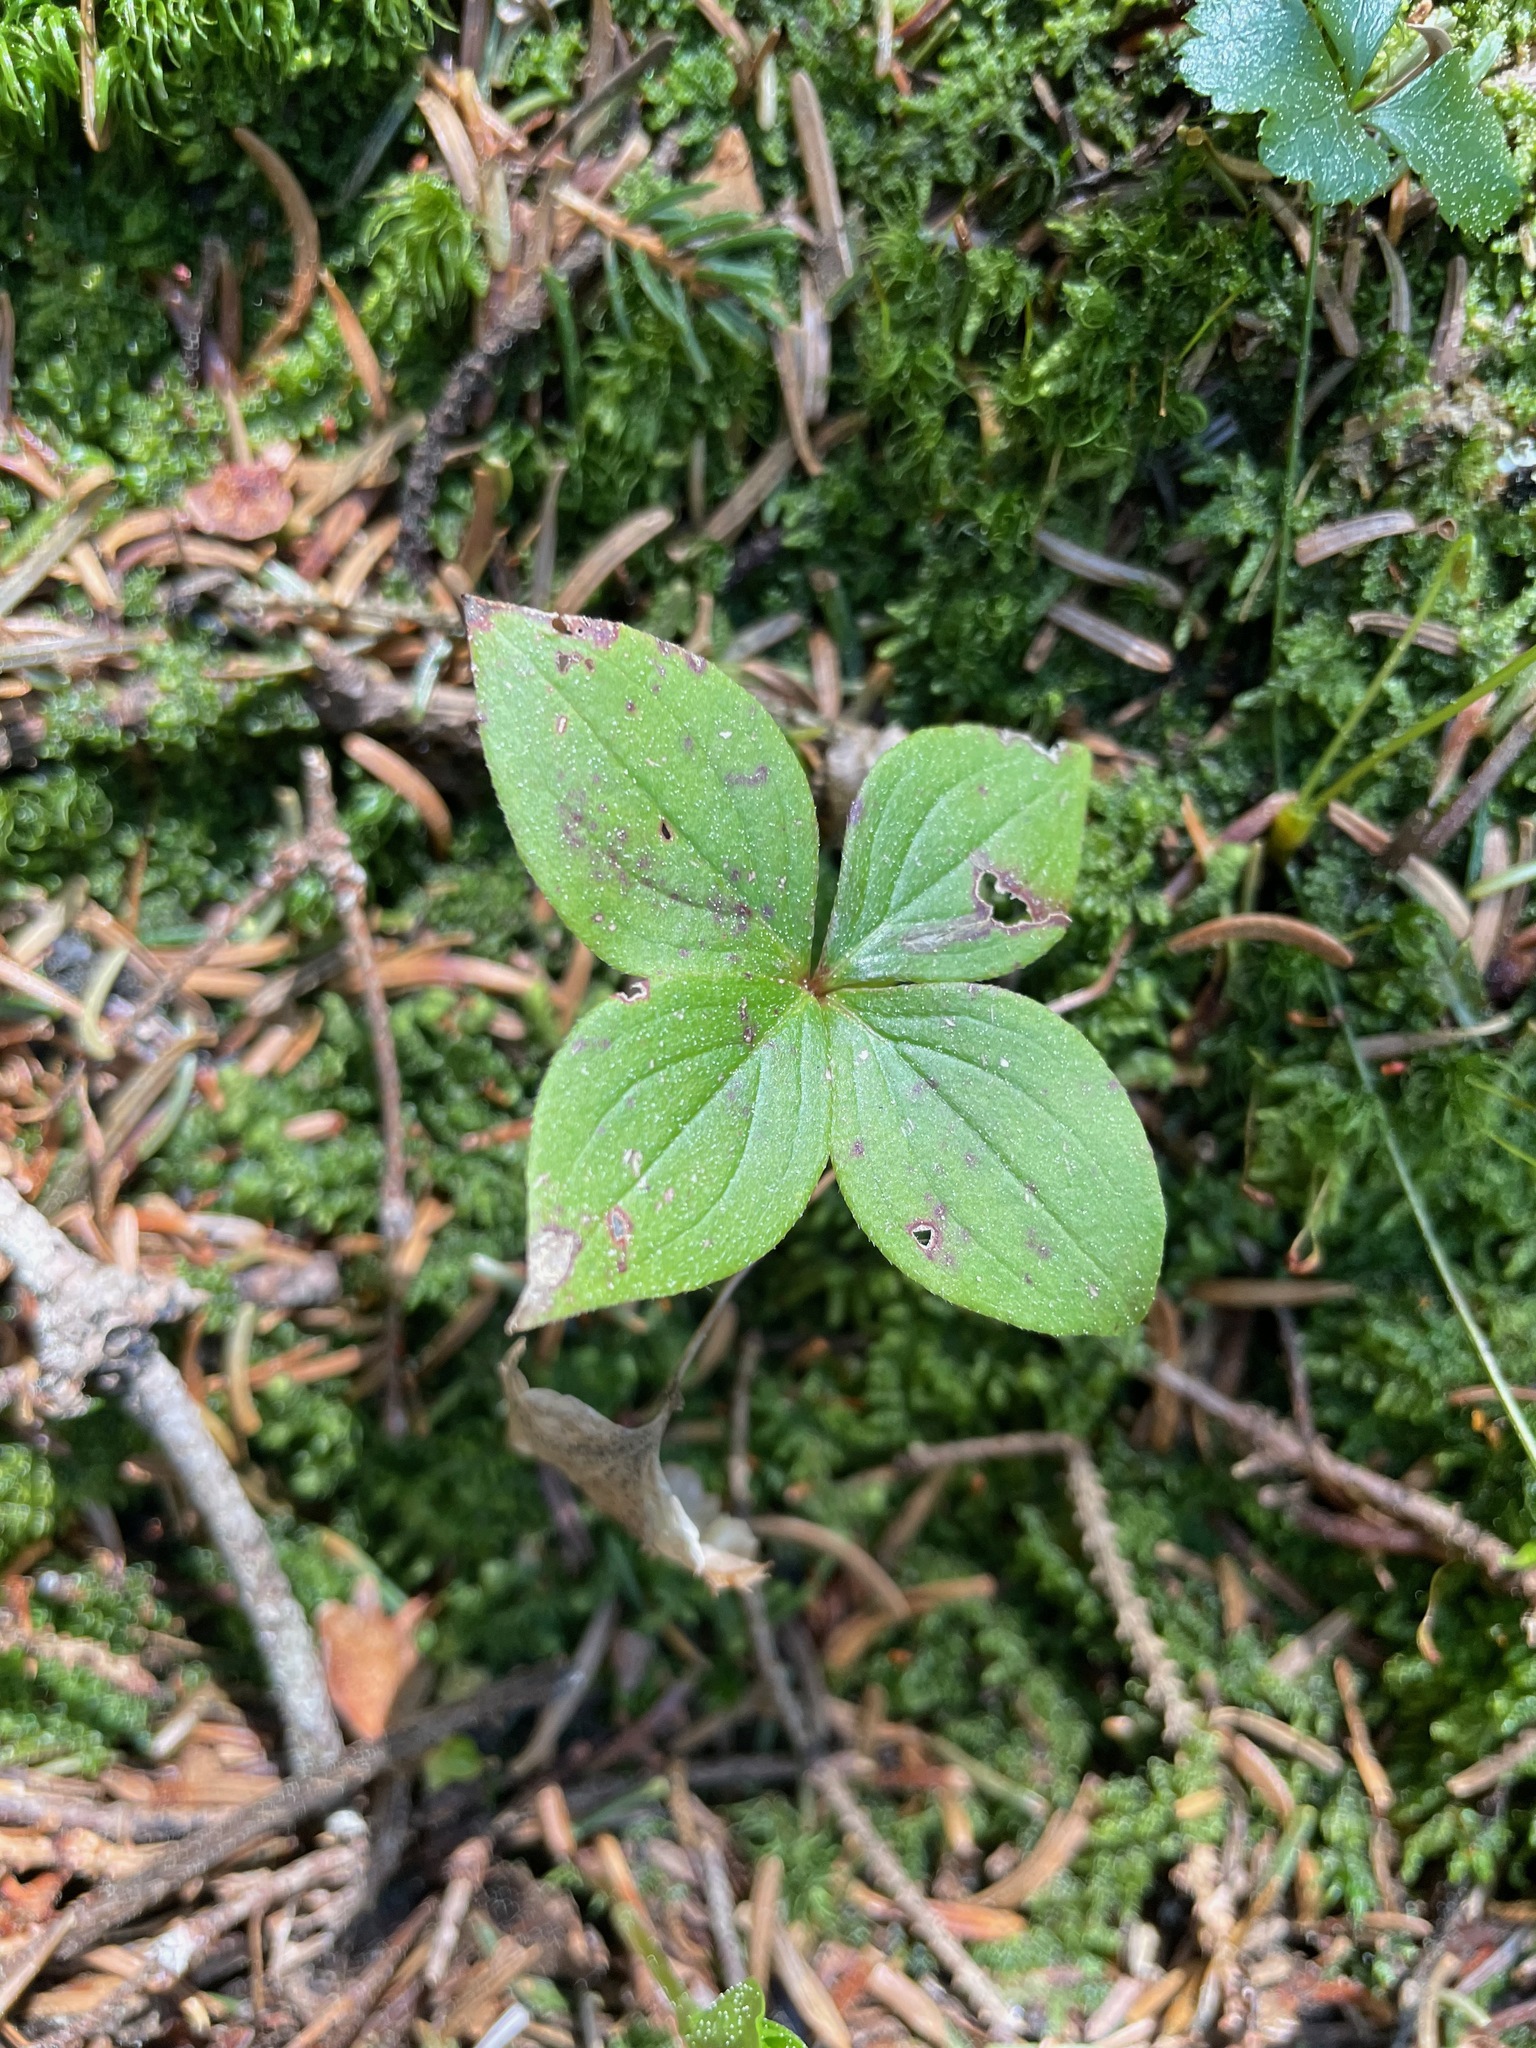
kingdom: Plantae
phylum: Tracheophyta
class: Magnoliopsida
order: Cornales
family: Cornaceae
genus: Cornus
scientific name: Cornus canadensis
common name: Creeping dogwood
